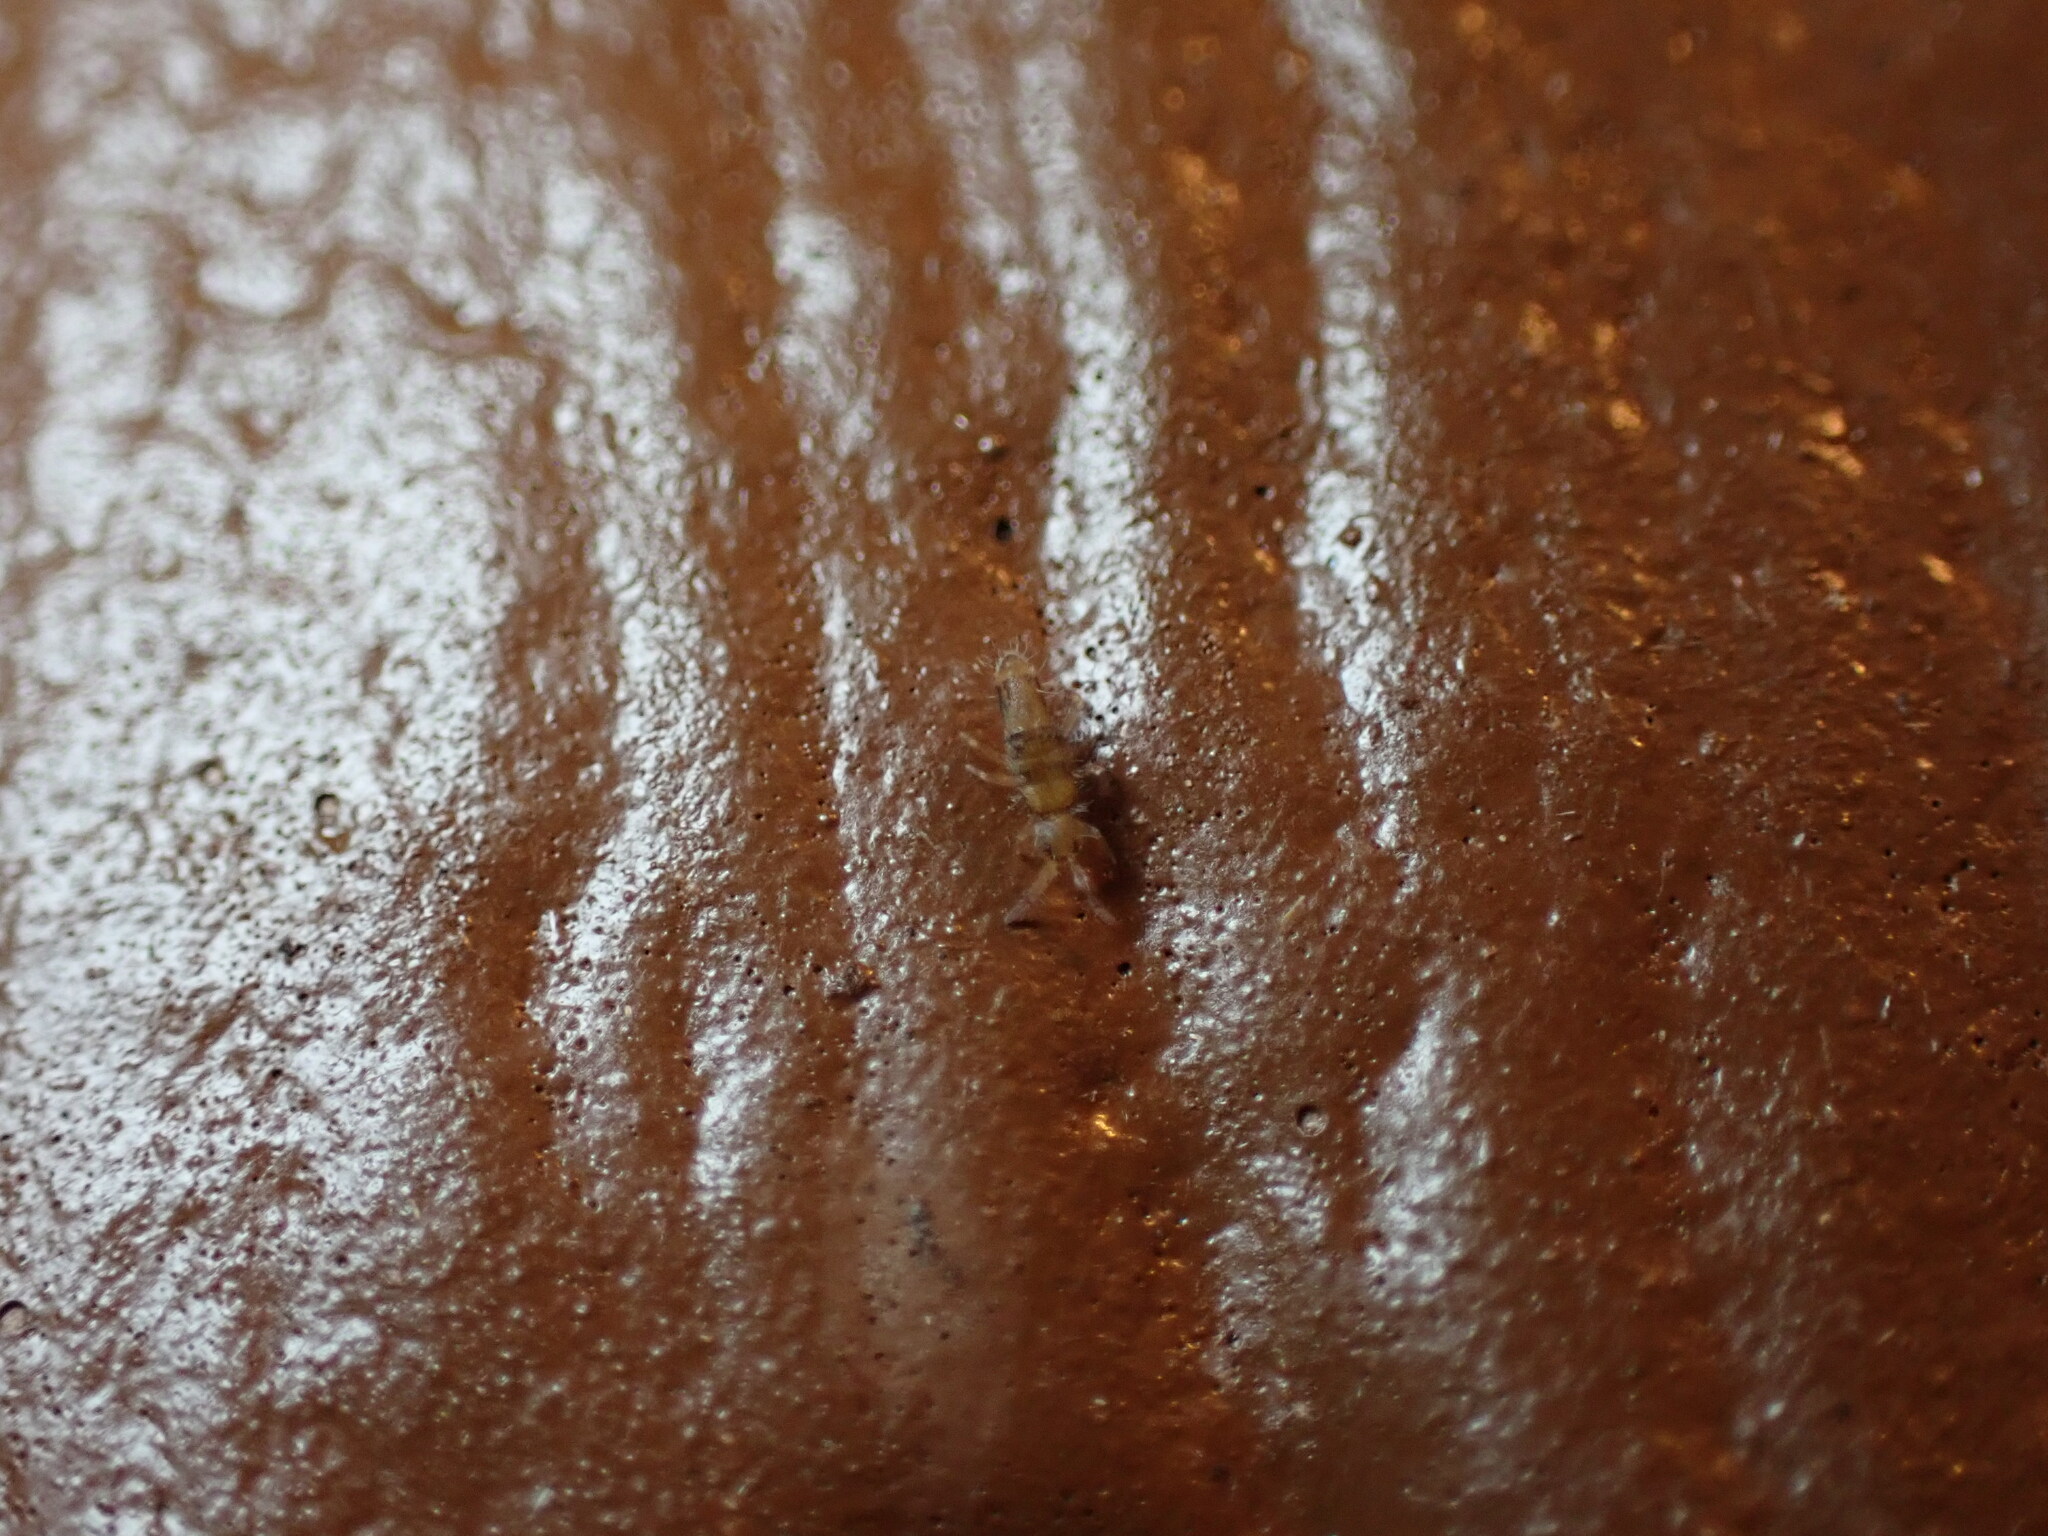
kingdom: Animalia
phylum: Arthropoda
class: Collembola
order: Entomobryomorpha
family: Entomobryidae
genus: Willowsia
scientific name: Willowsia nigromaculata
